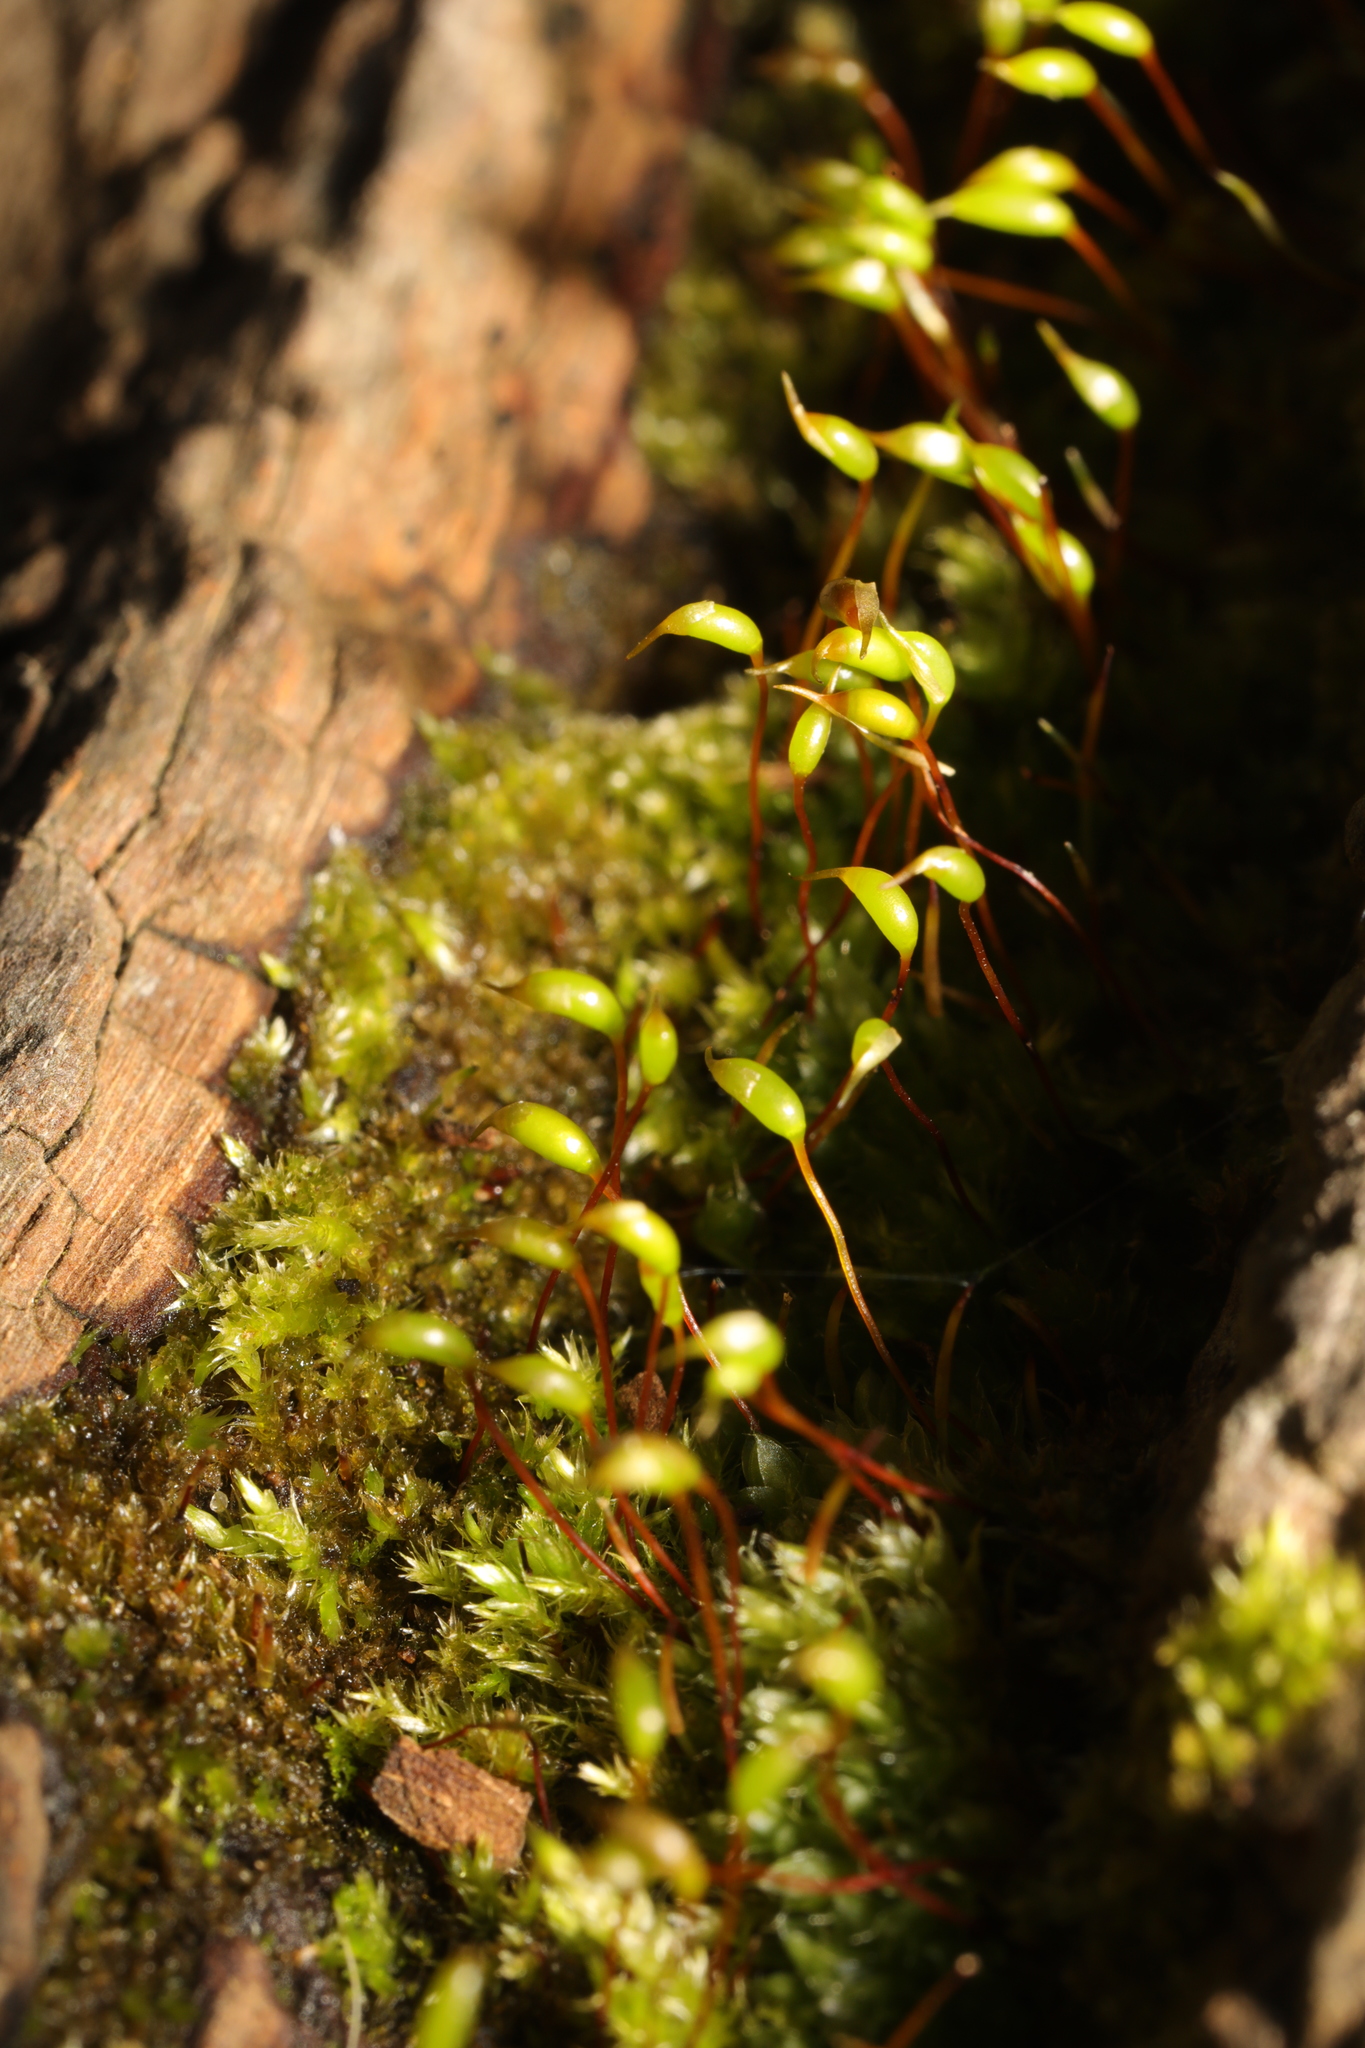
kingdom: Plantae
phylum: Bryophyta
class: Bryopsida
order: Hypnales
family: Brachytheciaceae
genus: Rhynchostegium
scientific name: Rhynchostegium confertum
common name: Clustered feather-moss
